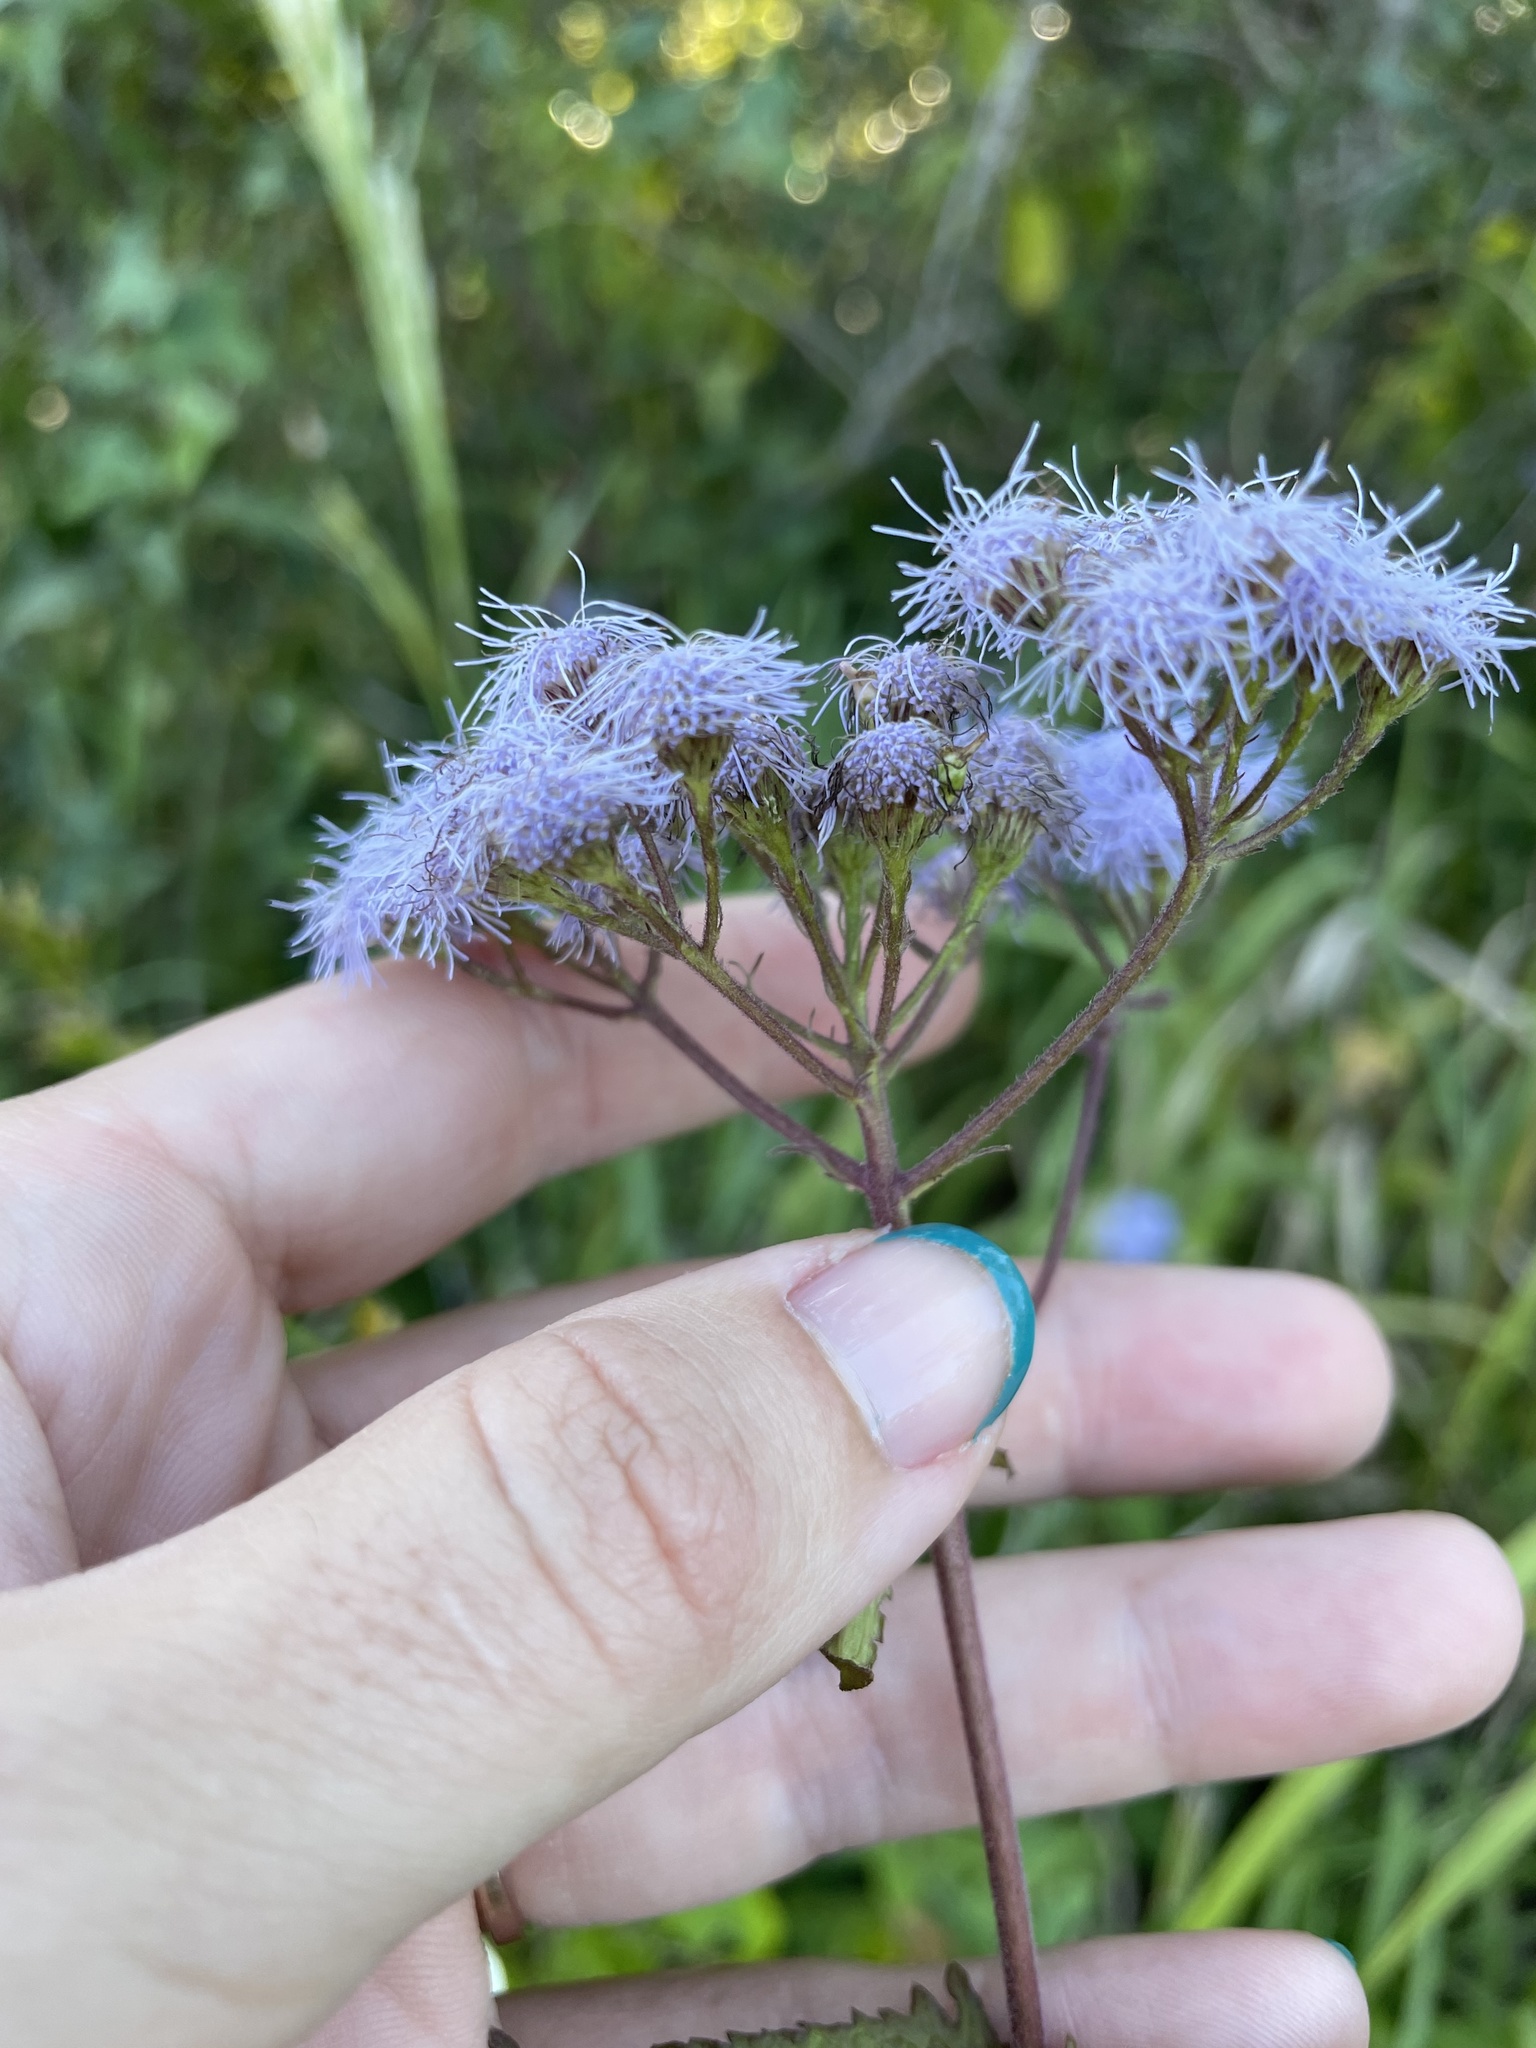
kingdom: Plantae
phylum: Tracheophyta
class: Magnoliopsida
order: Asterales
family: Asteraceae
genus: Conoclinium
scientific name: Conoclinium coelestinum
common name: Blue mistflower
